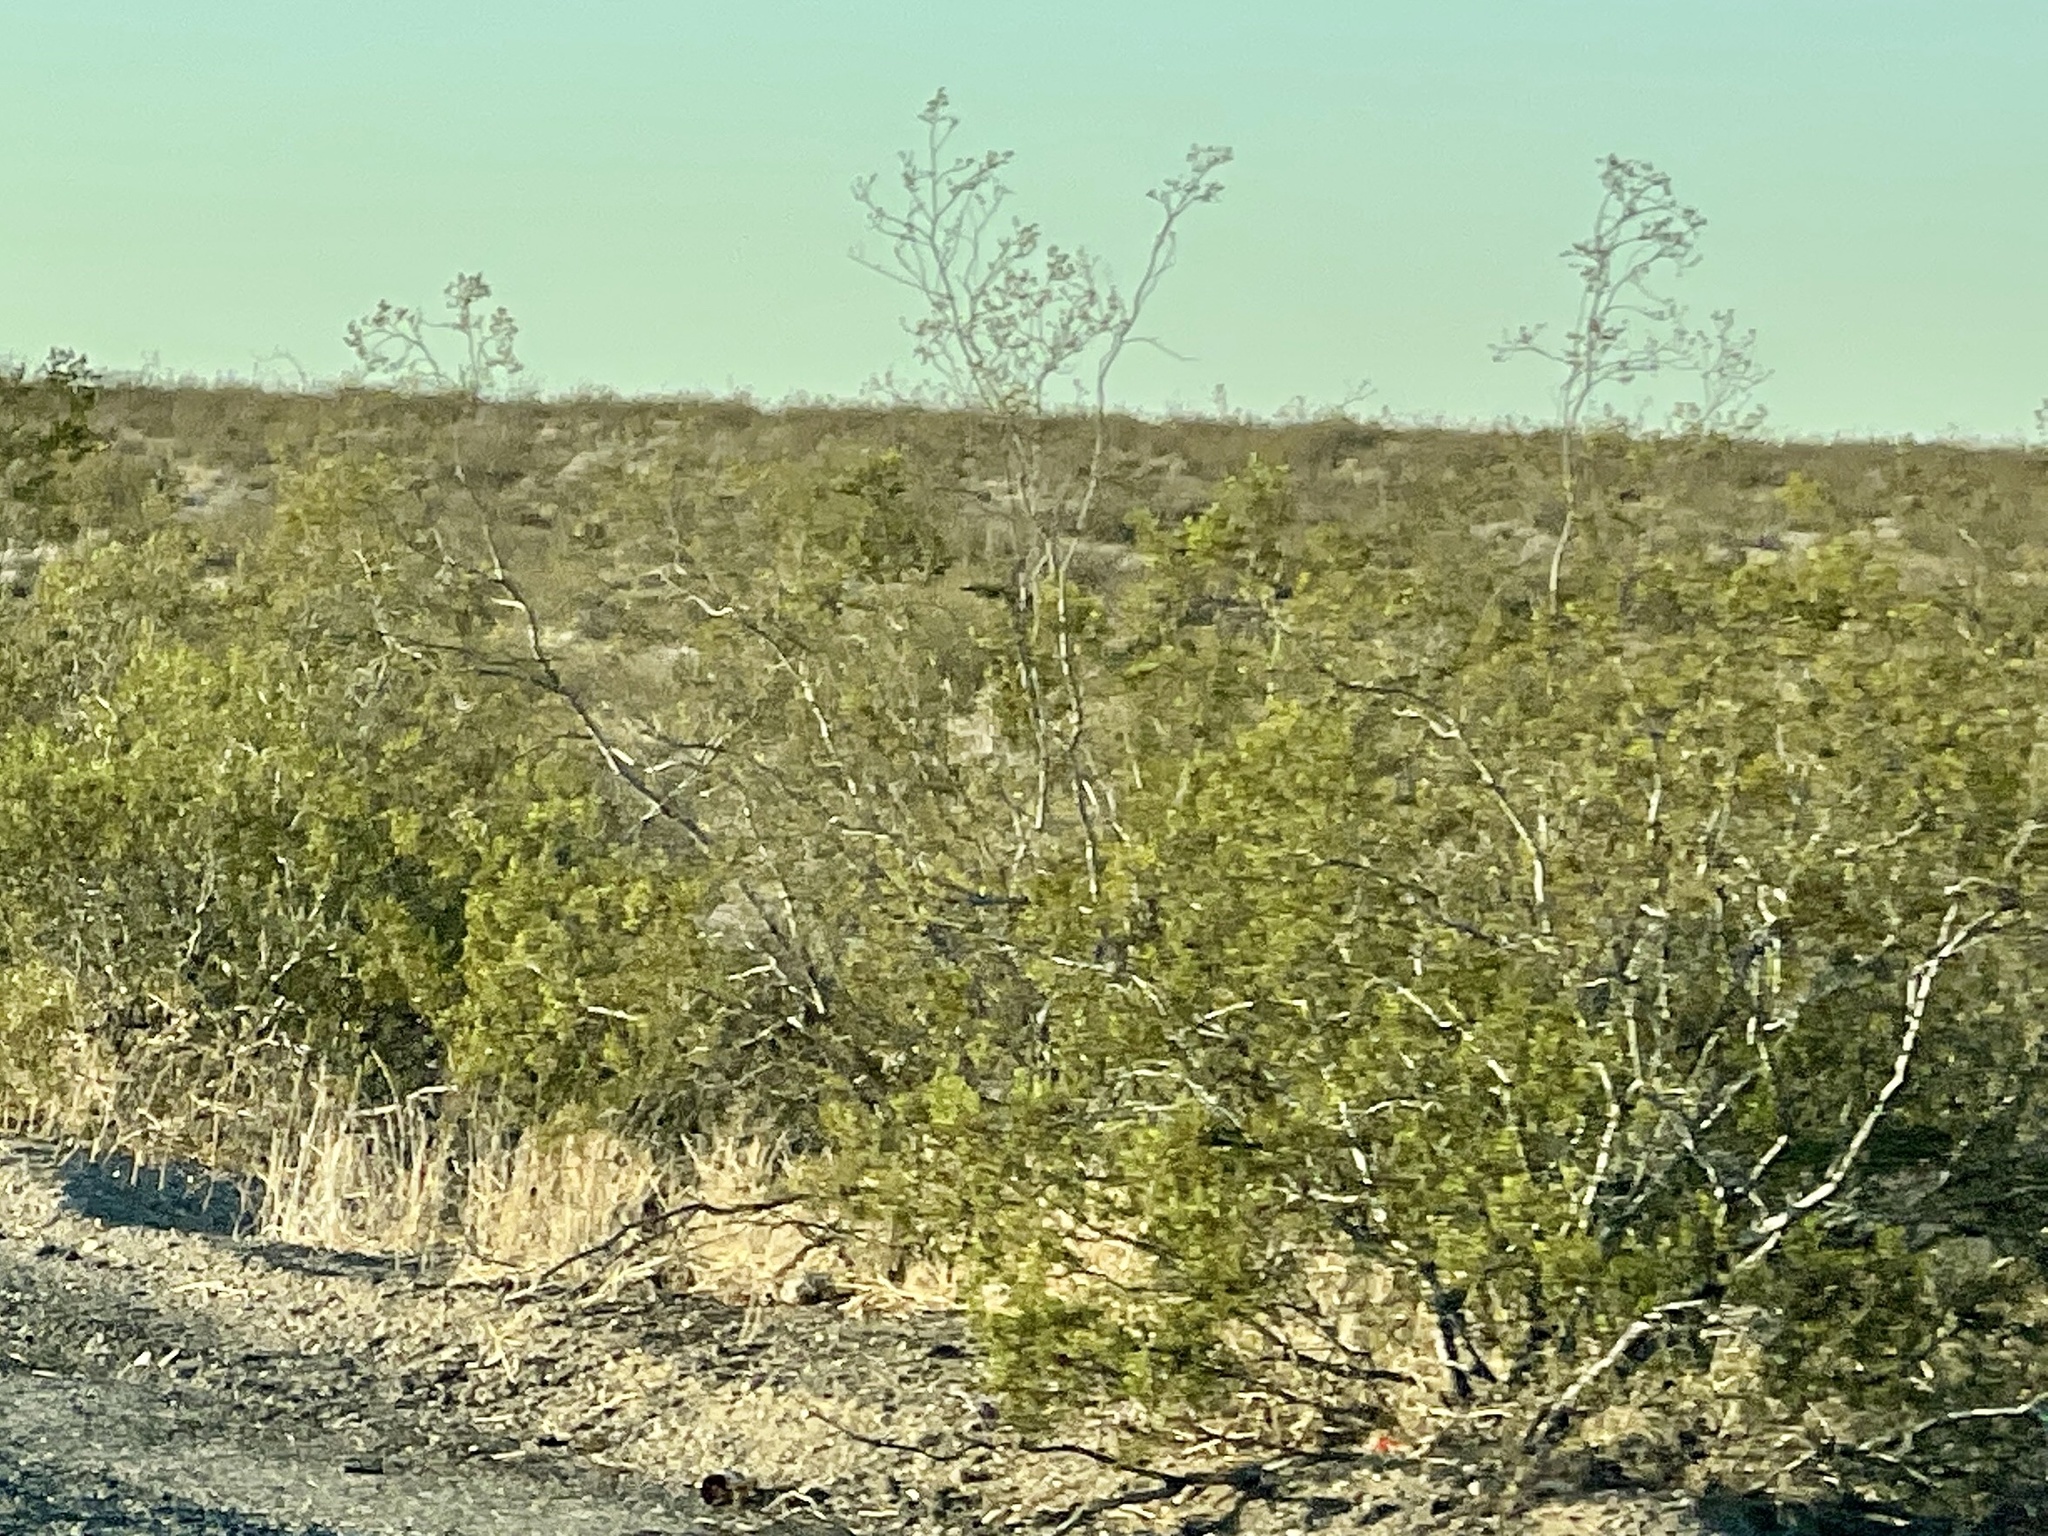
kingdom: Plantae
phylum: Tracheophyta
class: Magnoliopsida
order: Zygophyllales
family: Zygophyllaceae
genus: Larrea
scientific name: Larrea tridentata
